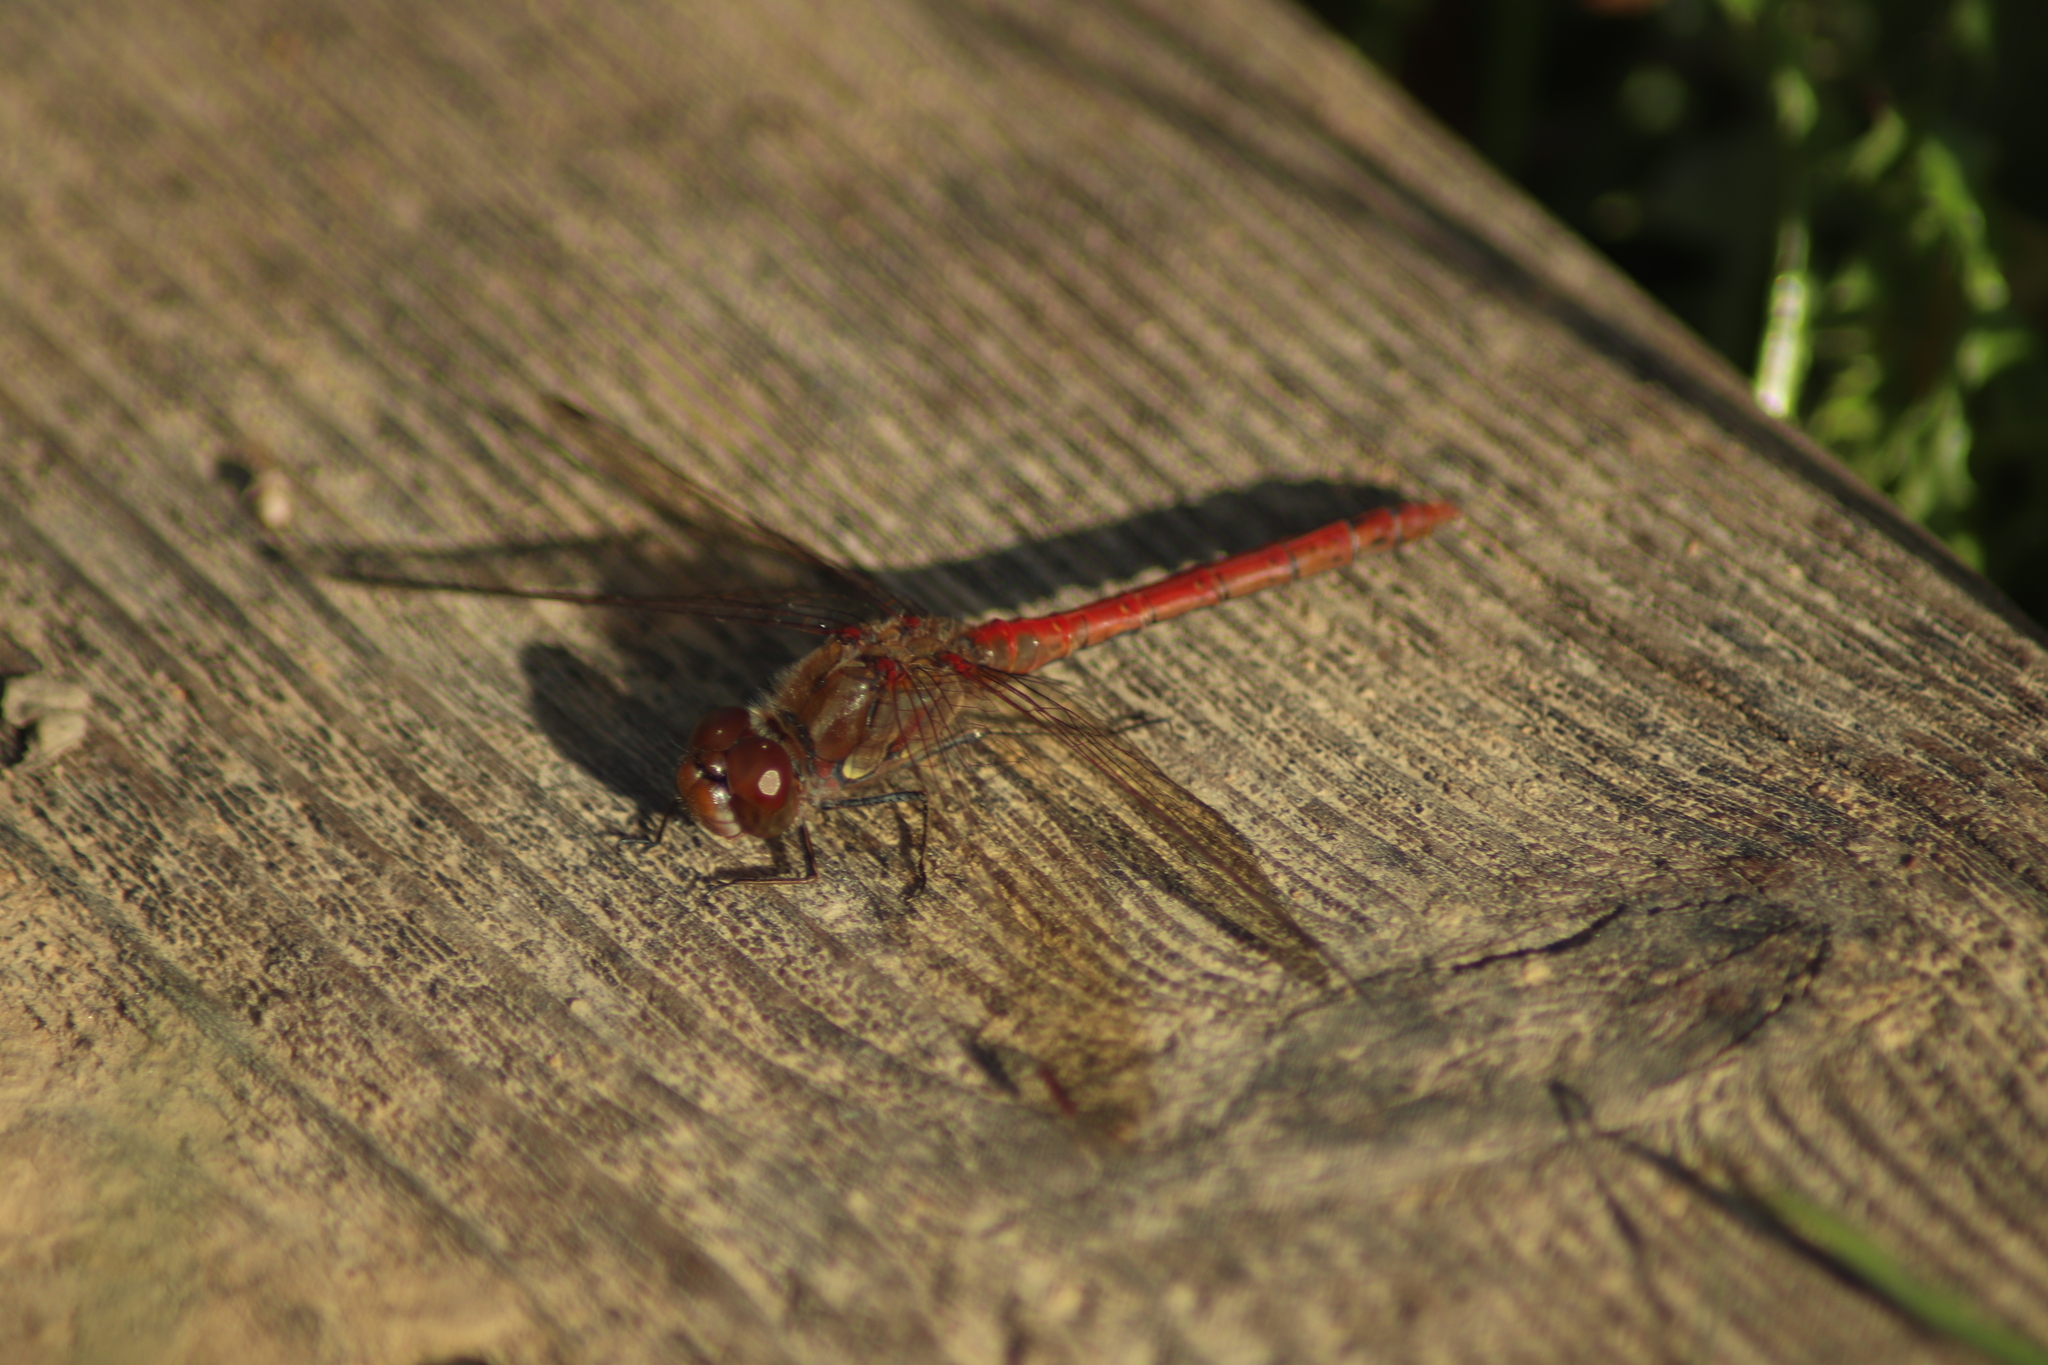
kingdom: Animalia
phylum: Arthropoda
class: Insecta
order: Odonata
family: Libellulidae
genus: Sympetrum
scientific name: Sympetrum striolatum
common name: Common darter
